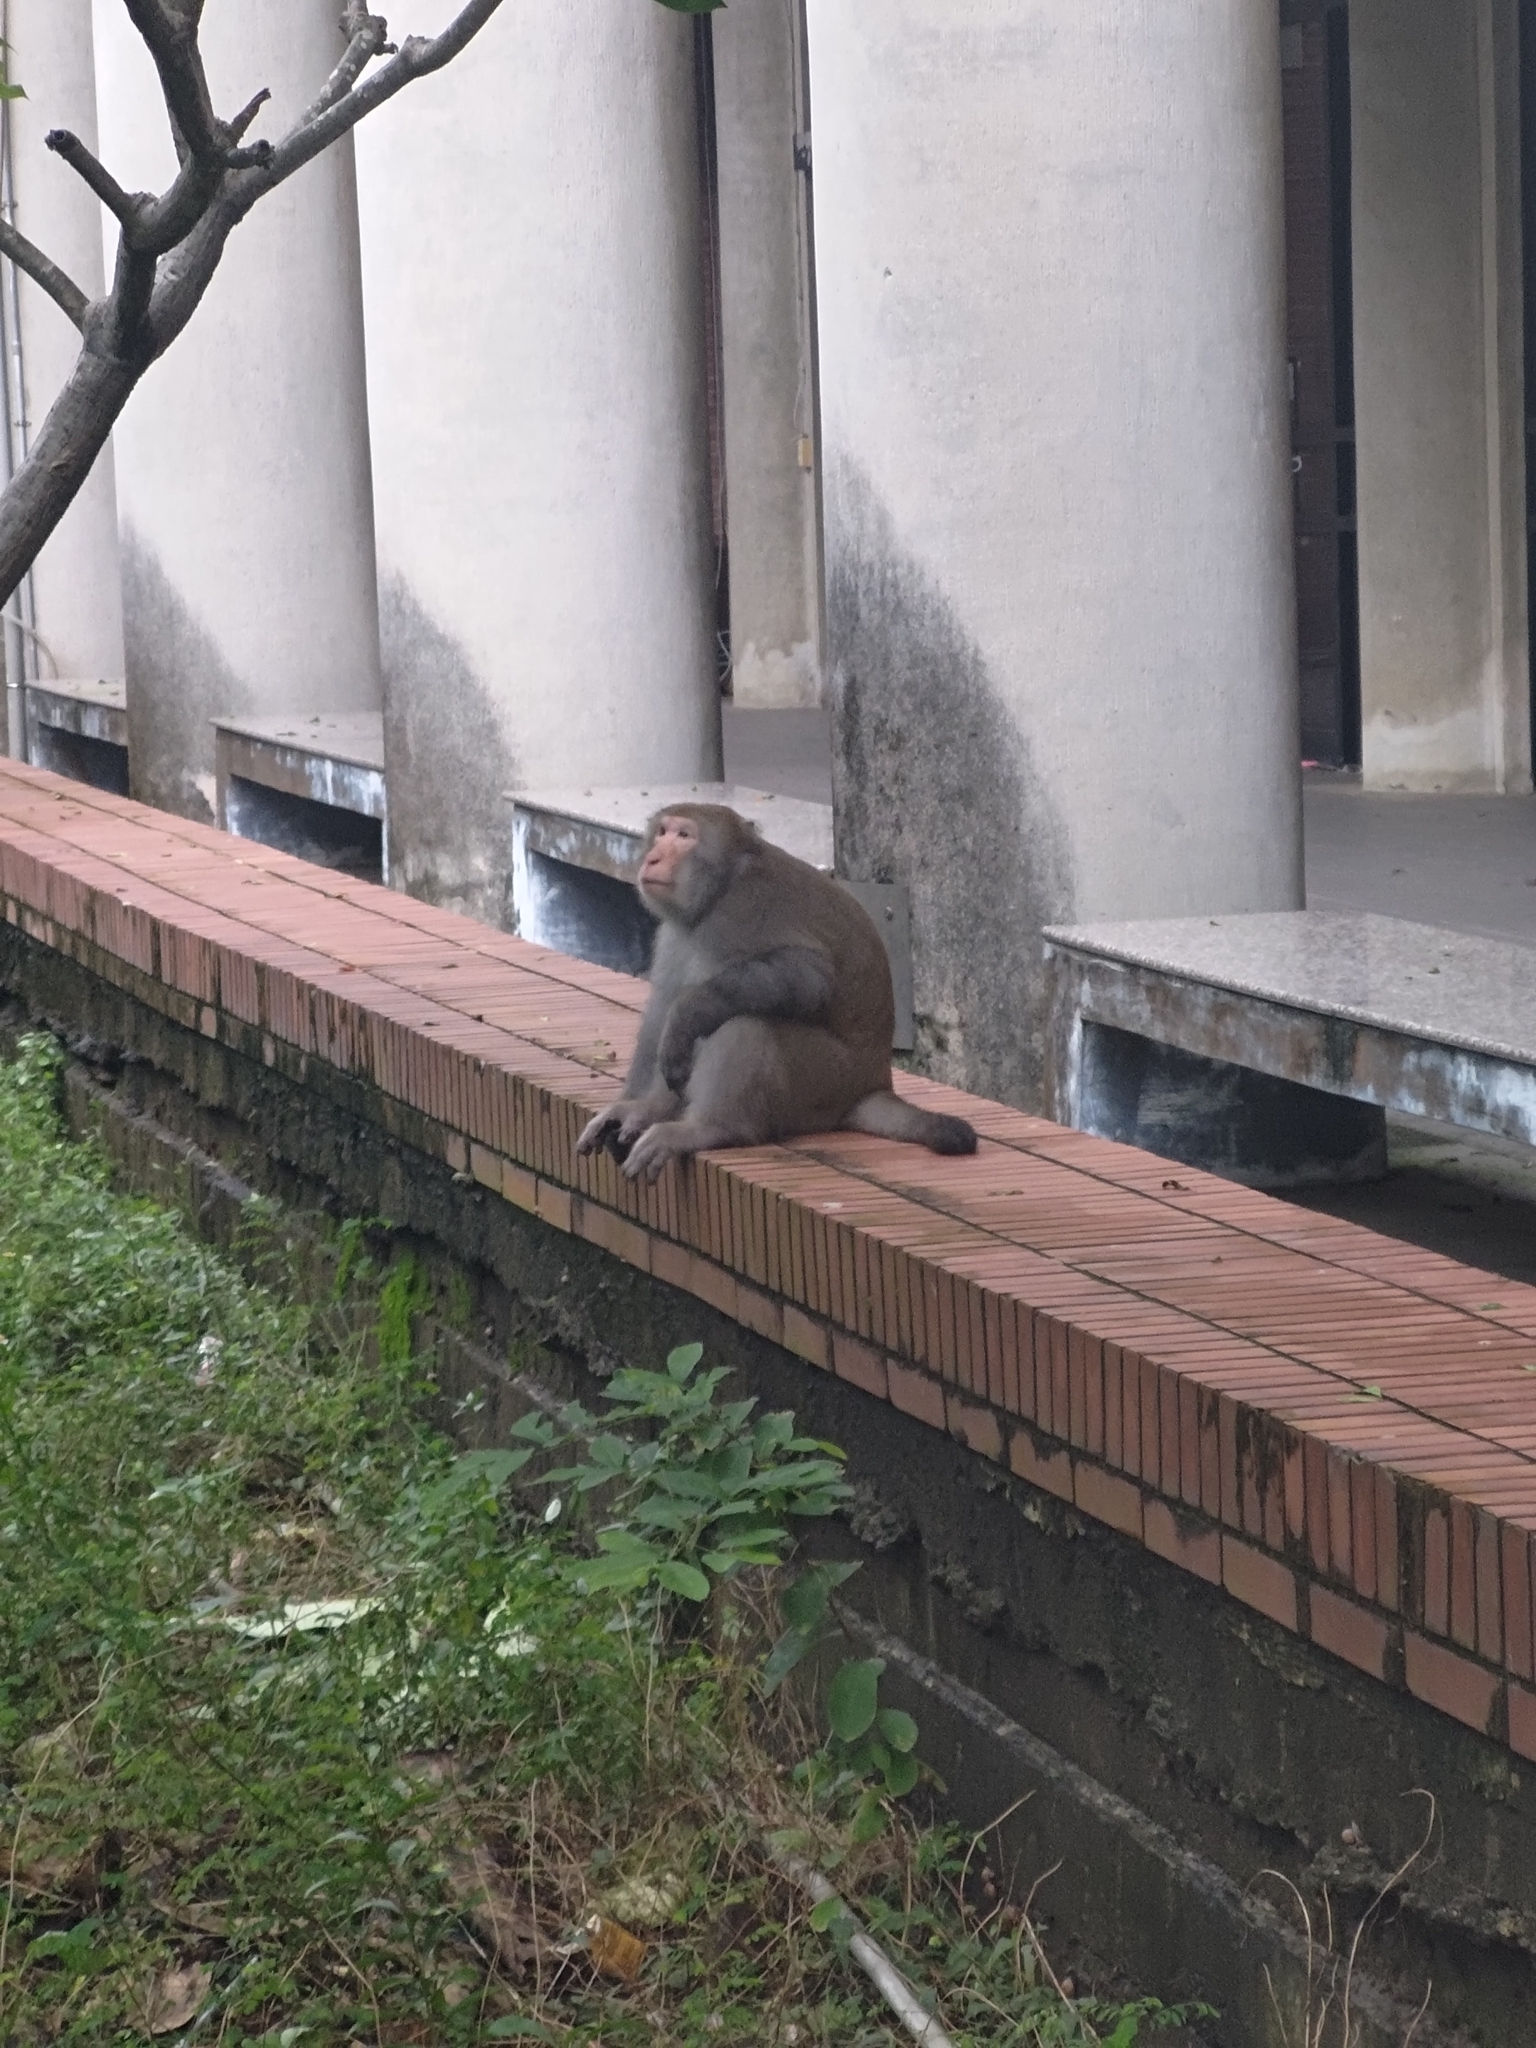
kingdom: Animalia
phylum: Chordata
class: Mammalia
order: Primates
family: Cercopithecidae
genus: Macaca
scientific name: Macaca cyclopis
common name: Formosan rock macaque
